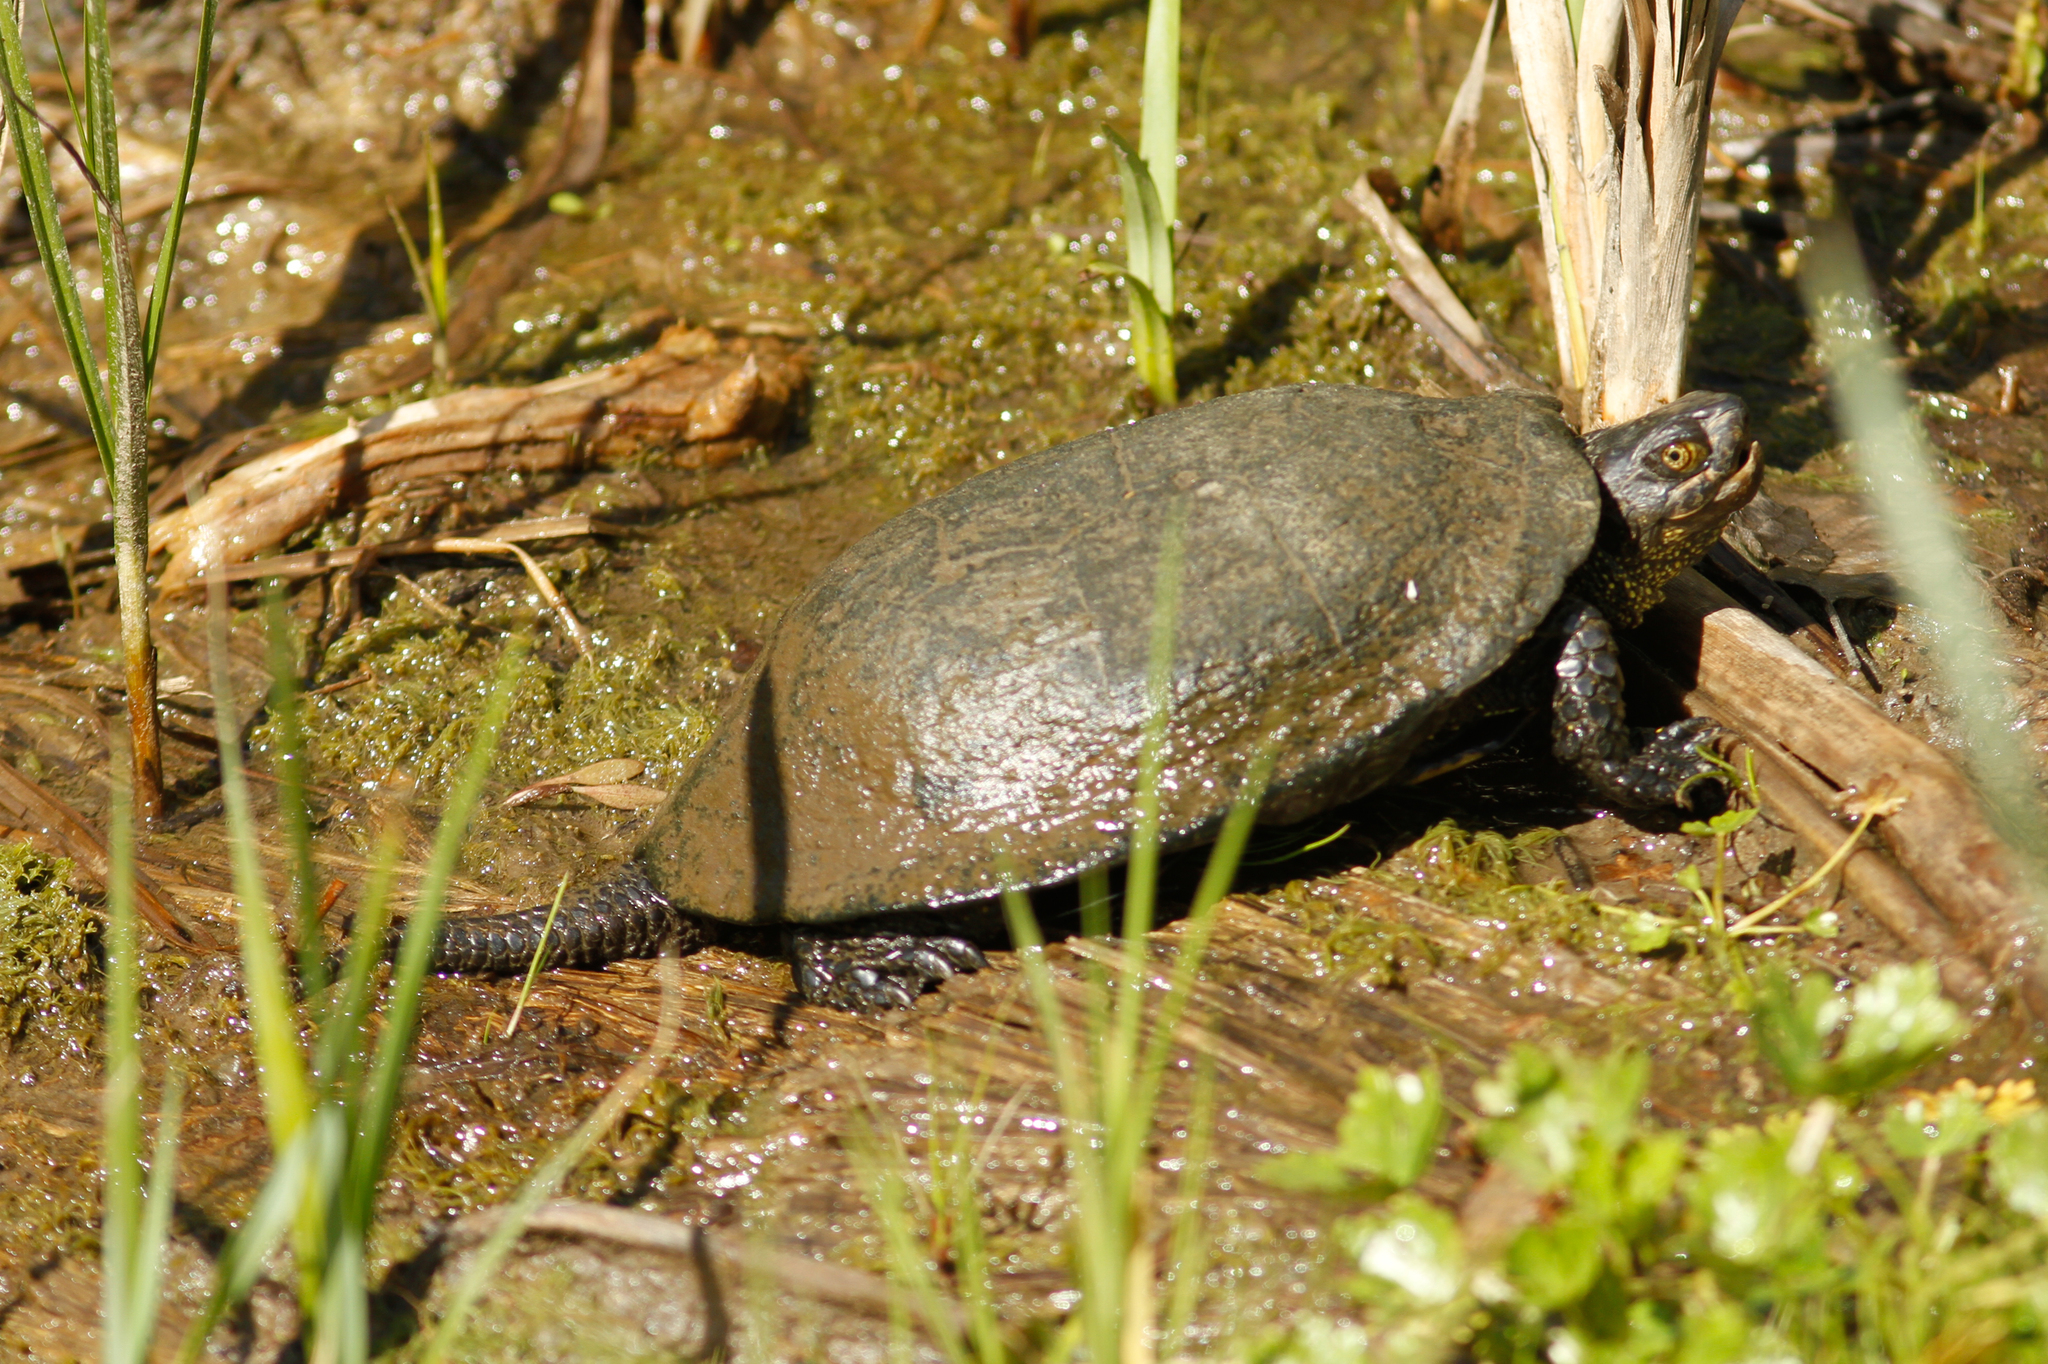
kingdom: Animalia
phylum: Chordata
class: Testudines
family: Emydidae
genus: Emys
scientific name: Emys orbicularis
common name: European pond turtle
